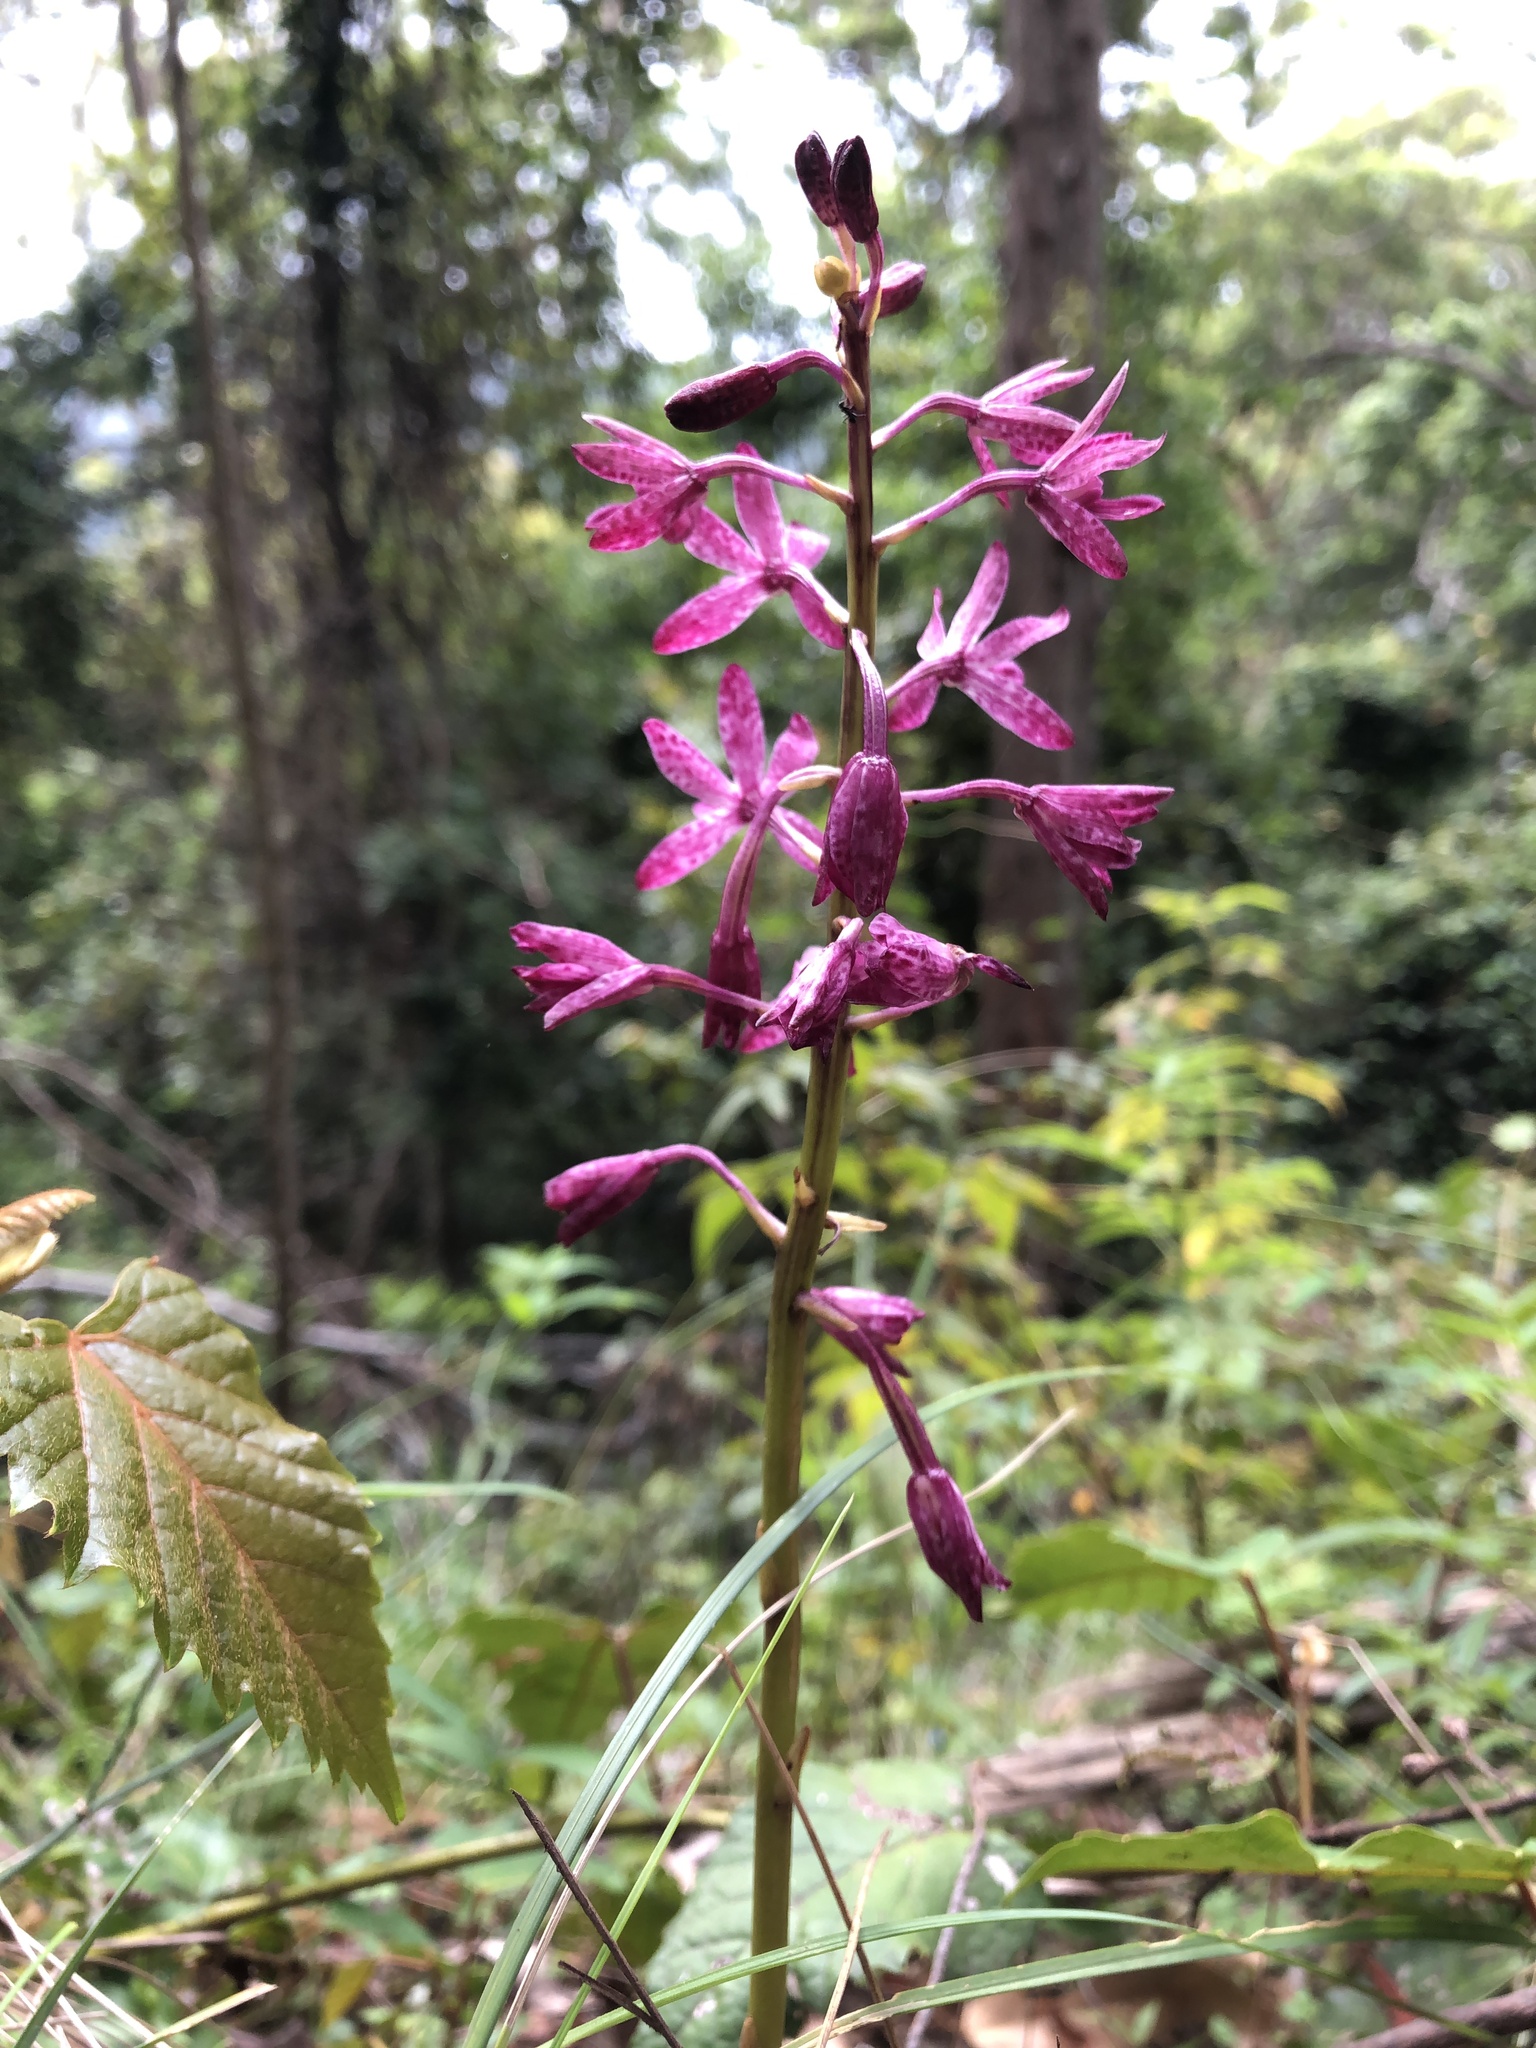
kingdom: Plantae
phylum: Tracheophyta
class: Liliopsida
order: Asparagales
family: Orchidaceae
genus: Dipodium
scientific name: Dipodium squamatum
